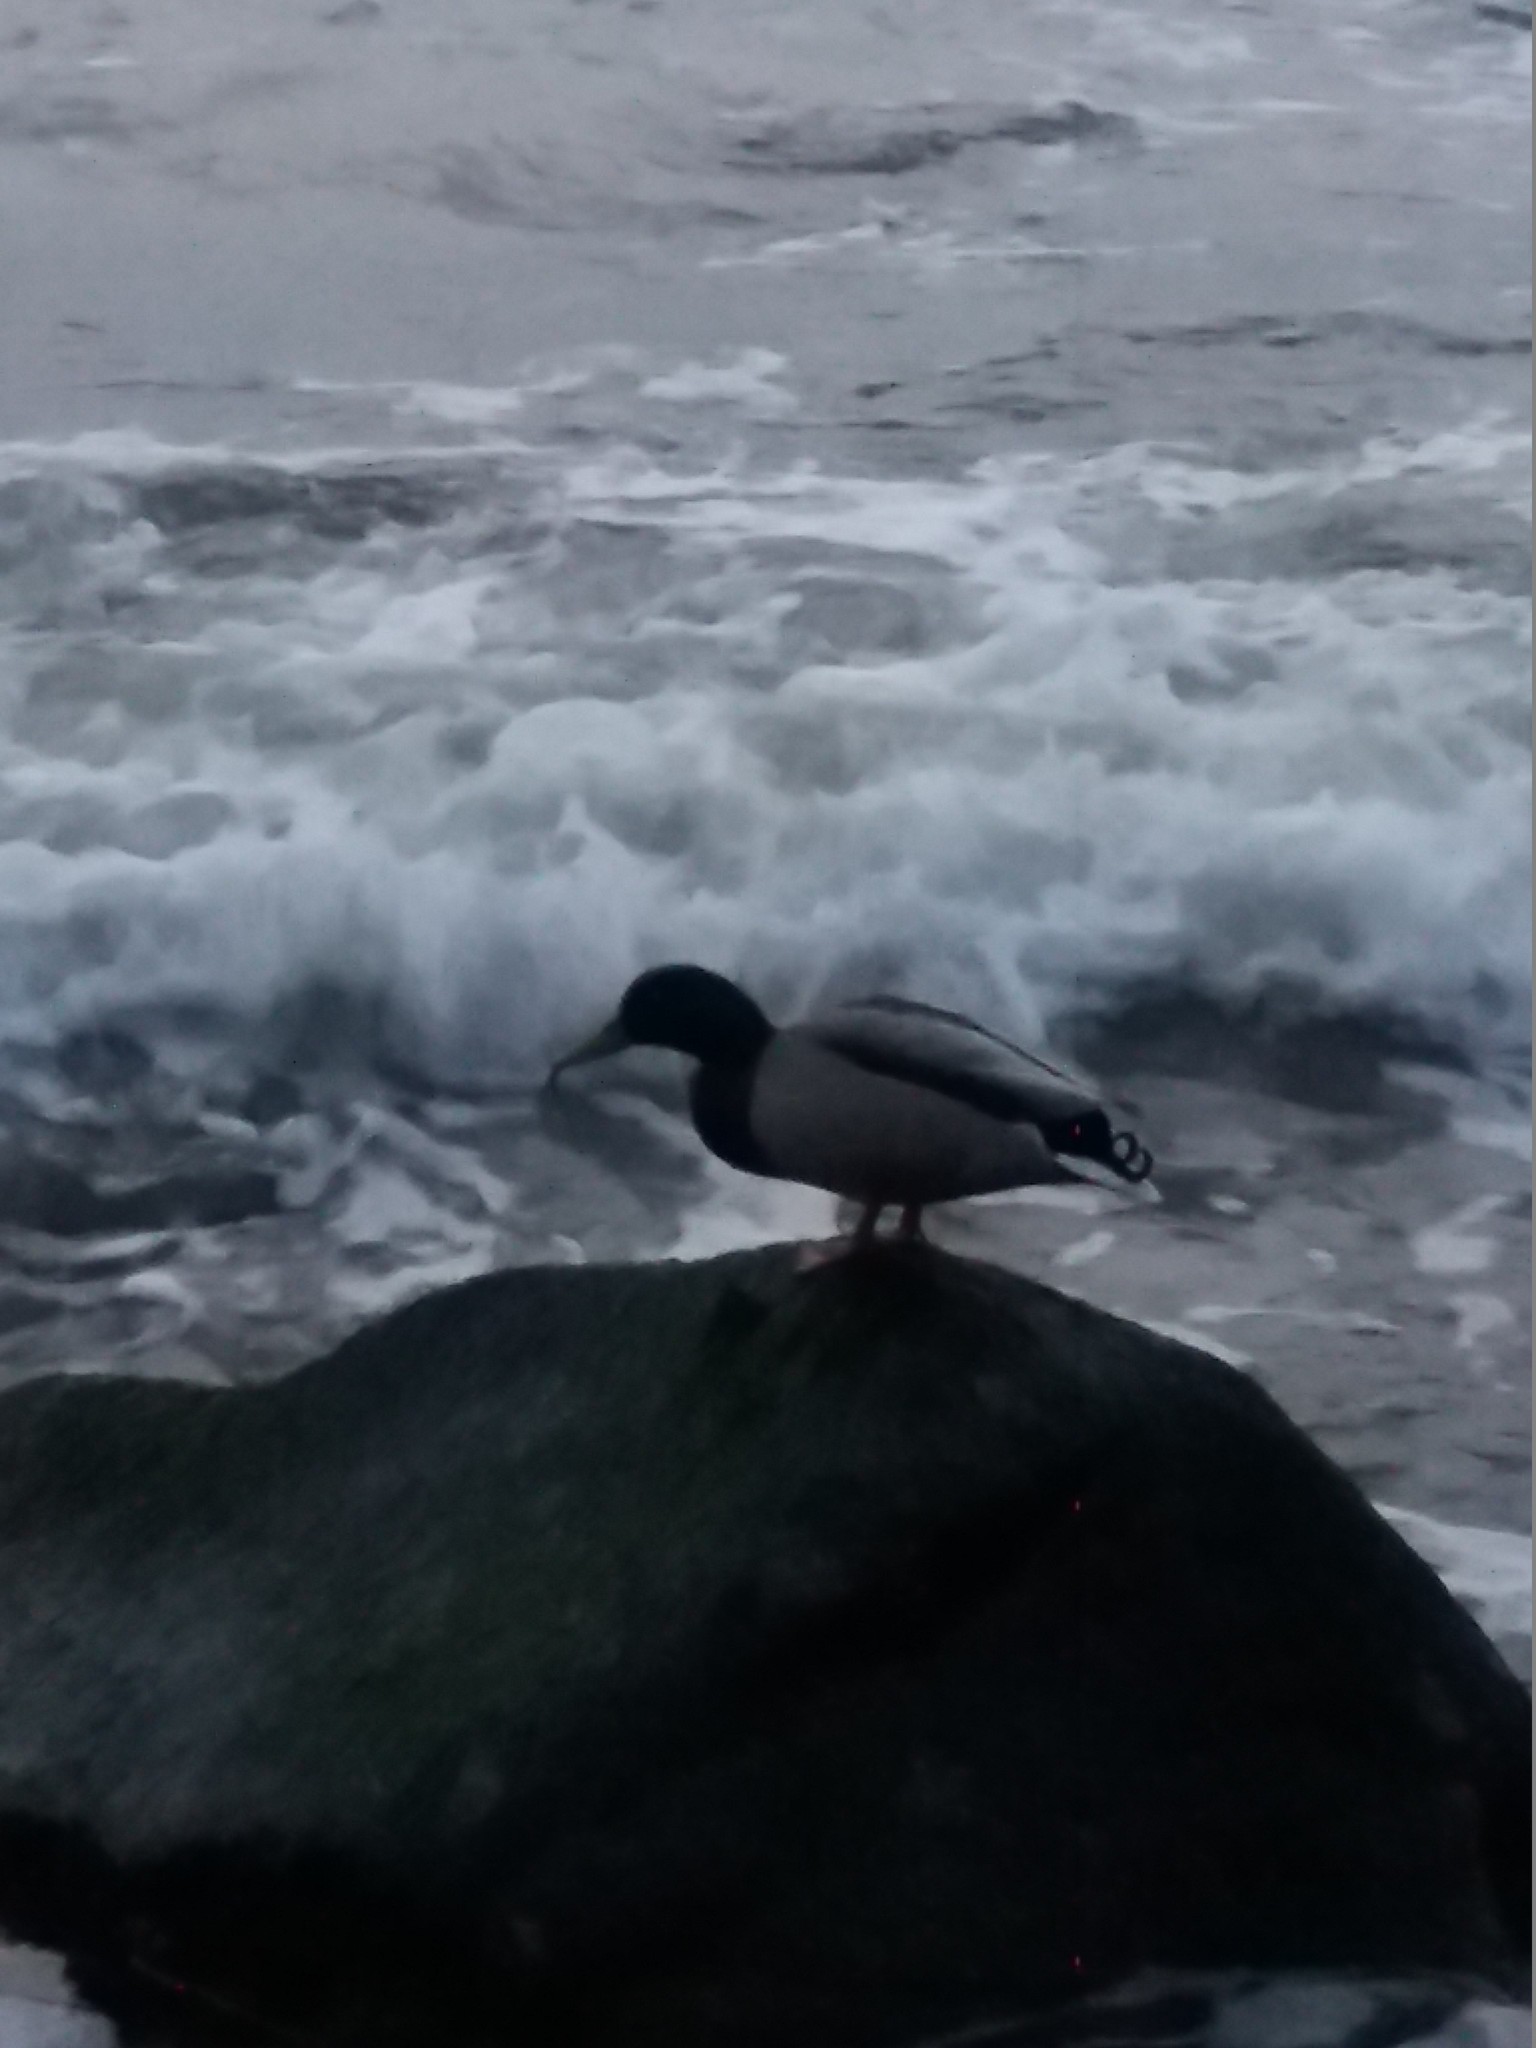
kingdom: Animalia
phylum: Chordata
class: Aves
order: Anseriformes
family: Anatidae
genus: Anas
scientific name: Anas platyrhynchos
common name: Mallard
